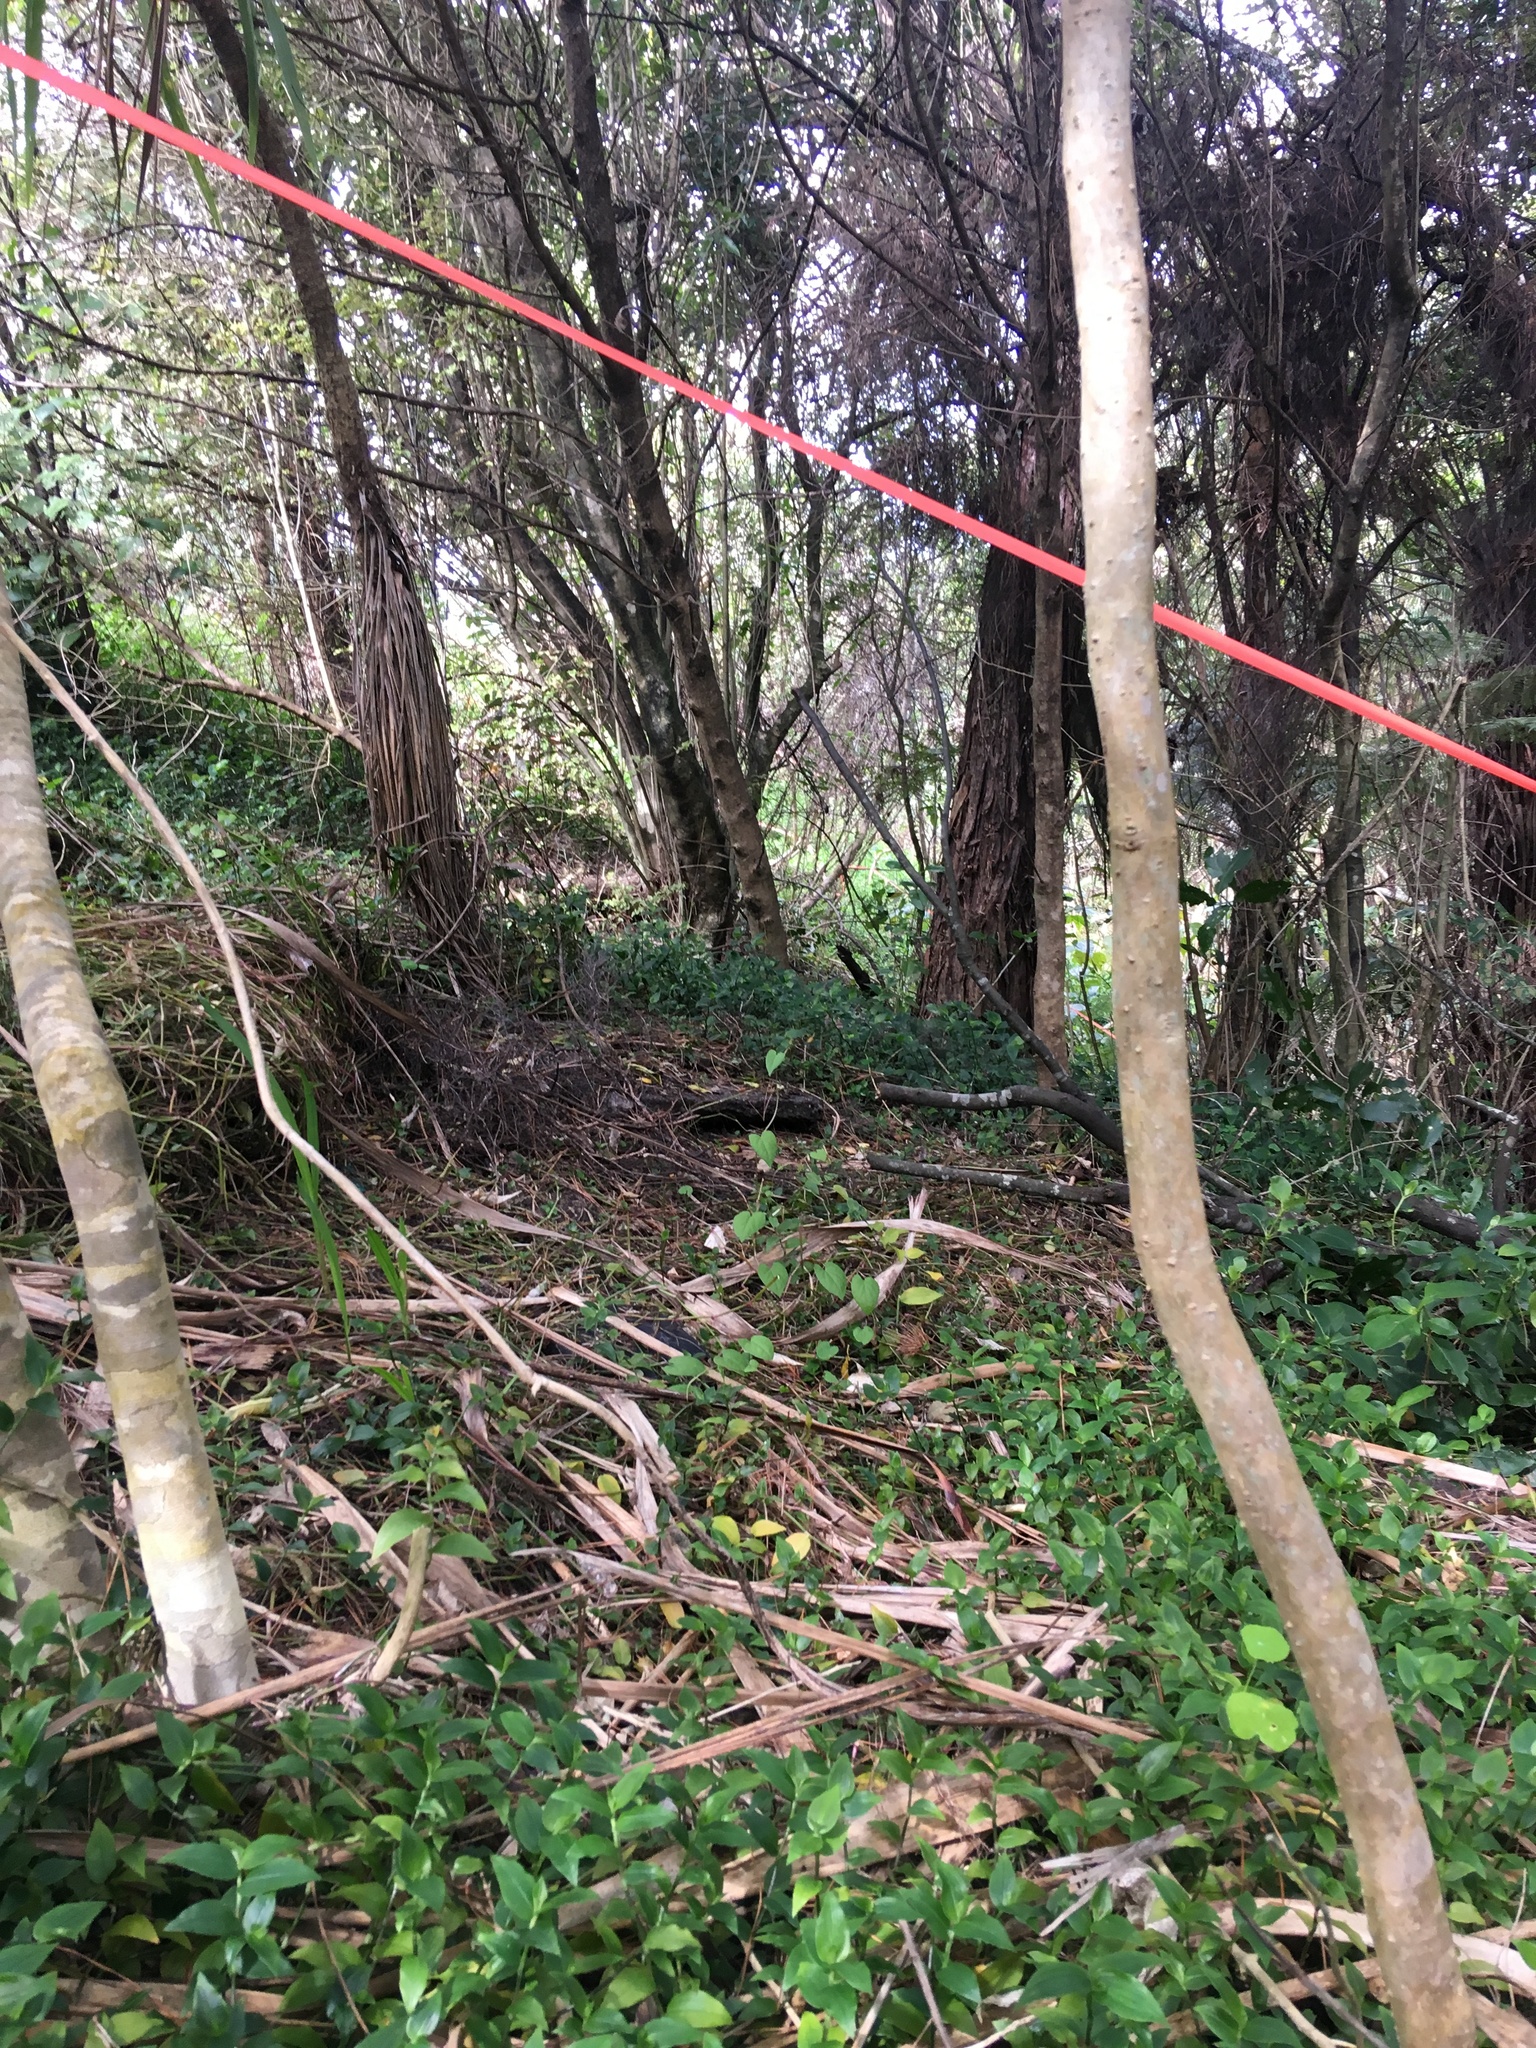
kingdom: Plantae
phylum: Tracheophyta
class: Liliopsida
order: Commelinales
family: Commelinaceae
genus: Tradescantia
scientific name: Tradescantia fluminensis
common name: Wandering-jew
